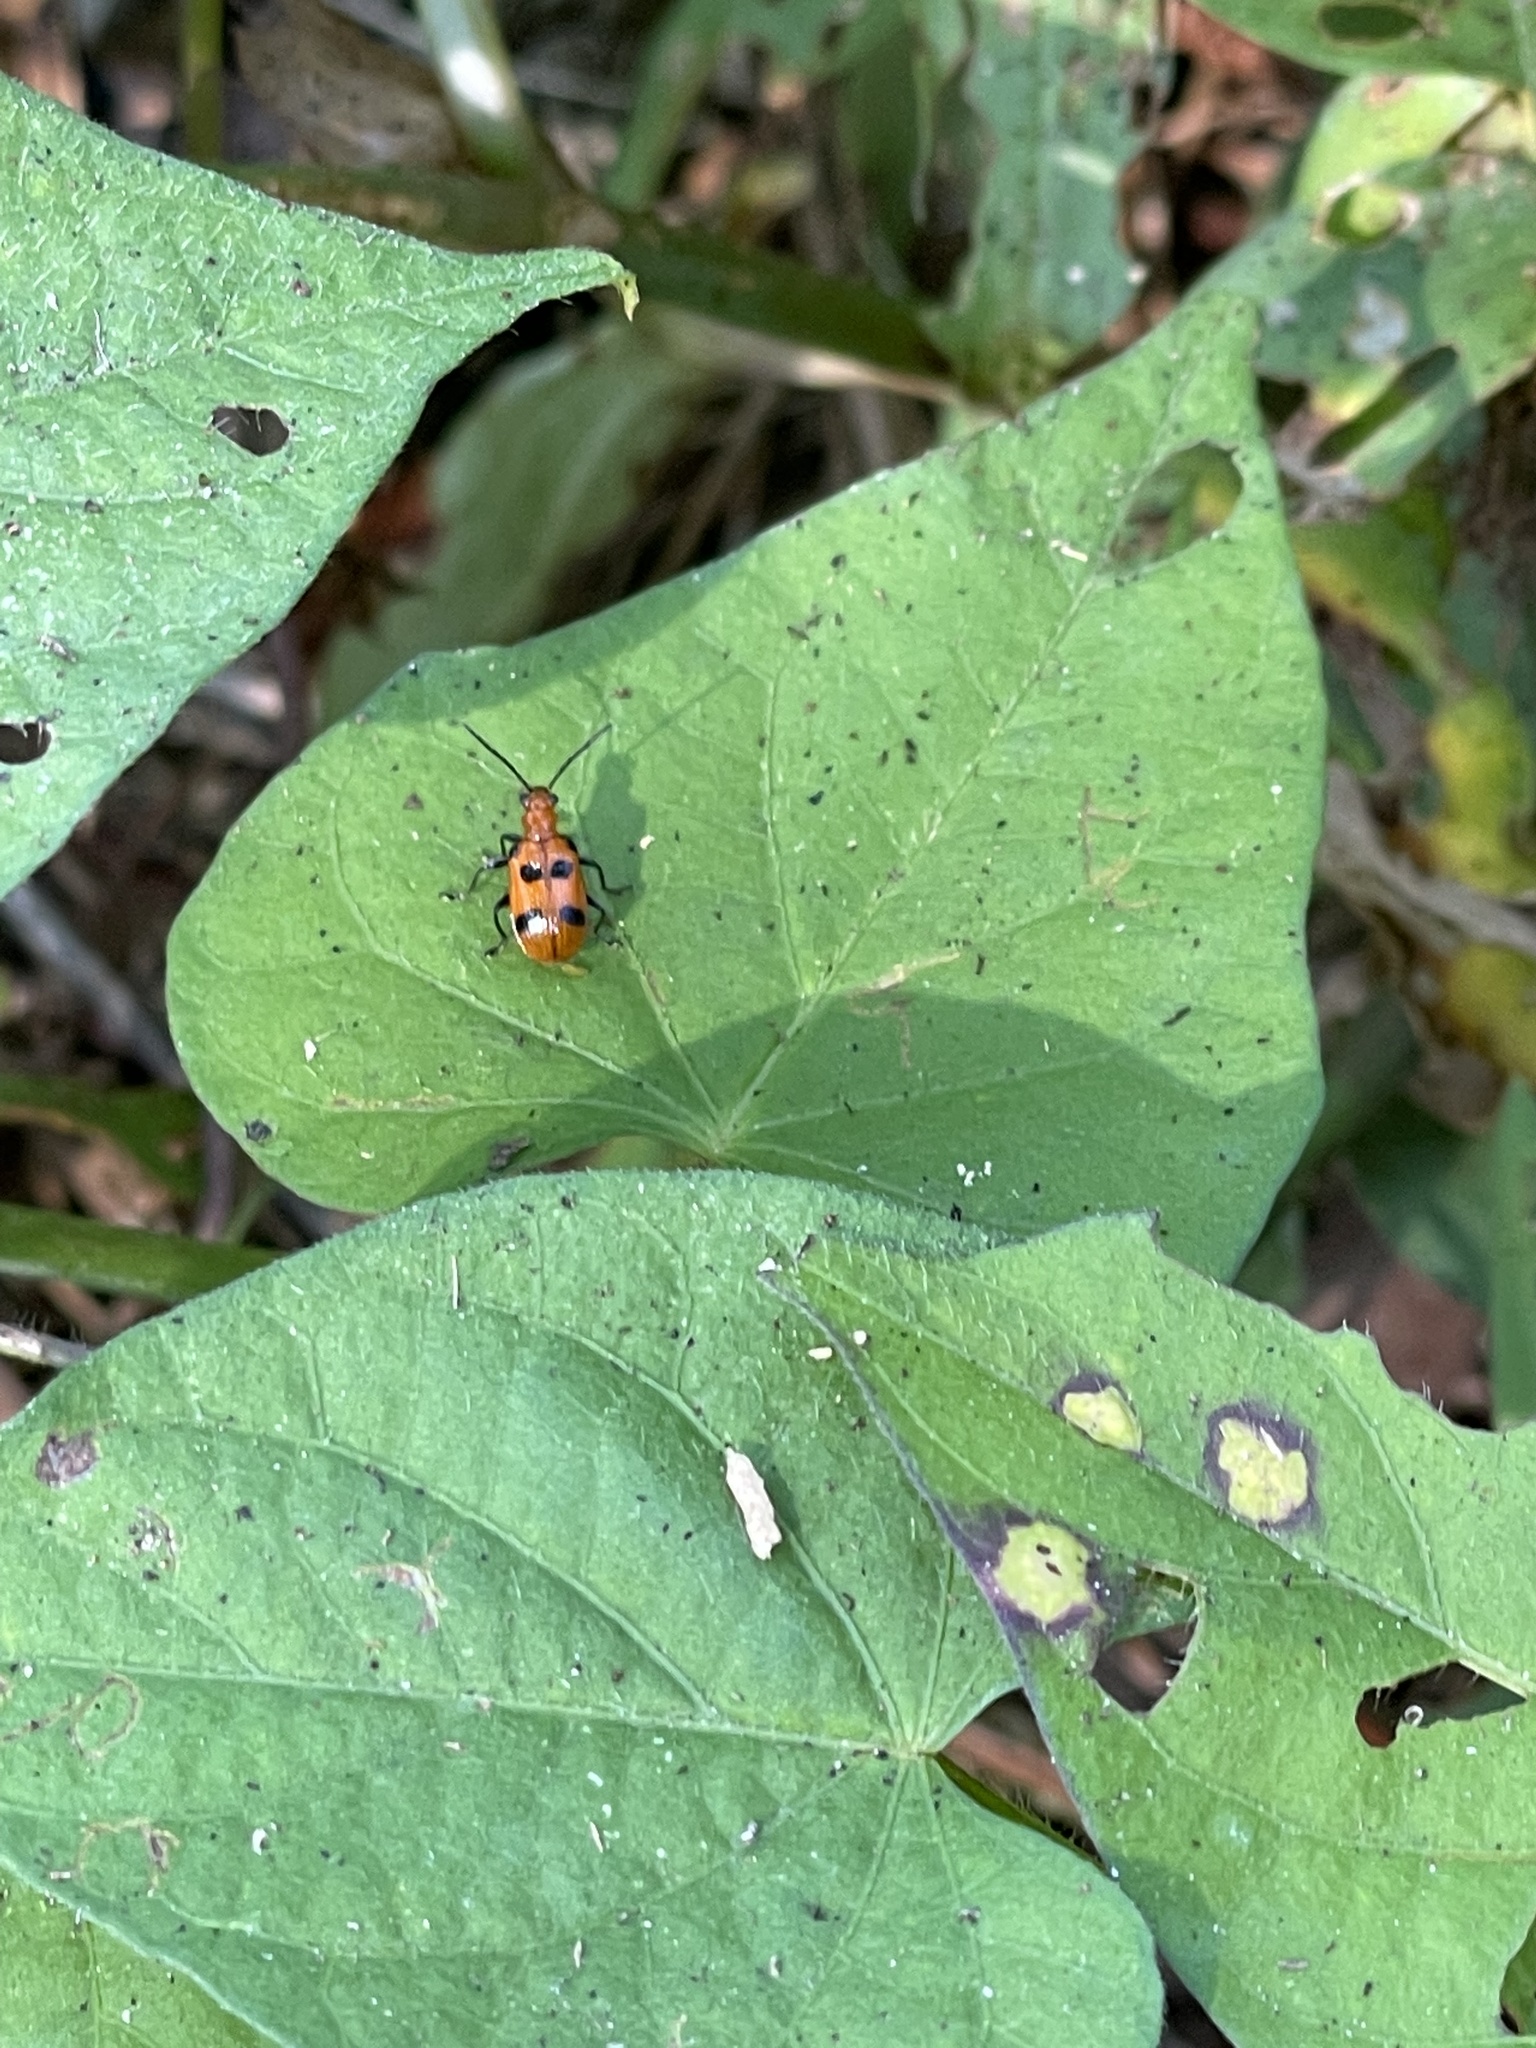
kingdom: Animalia
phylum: Arthropoda
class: Insecta
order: Coleoptera
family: Chrysomelidae
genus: Neolema
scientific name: Neolema sexpunctata
